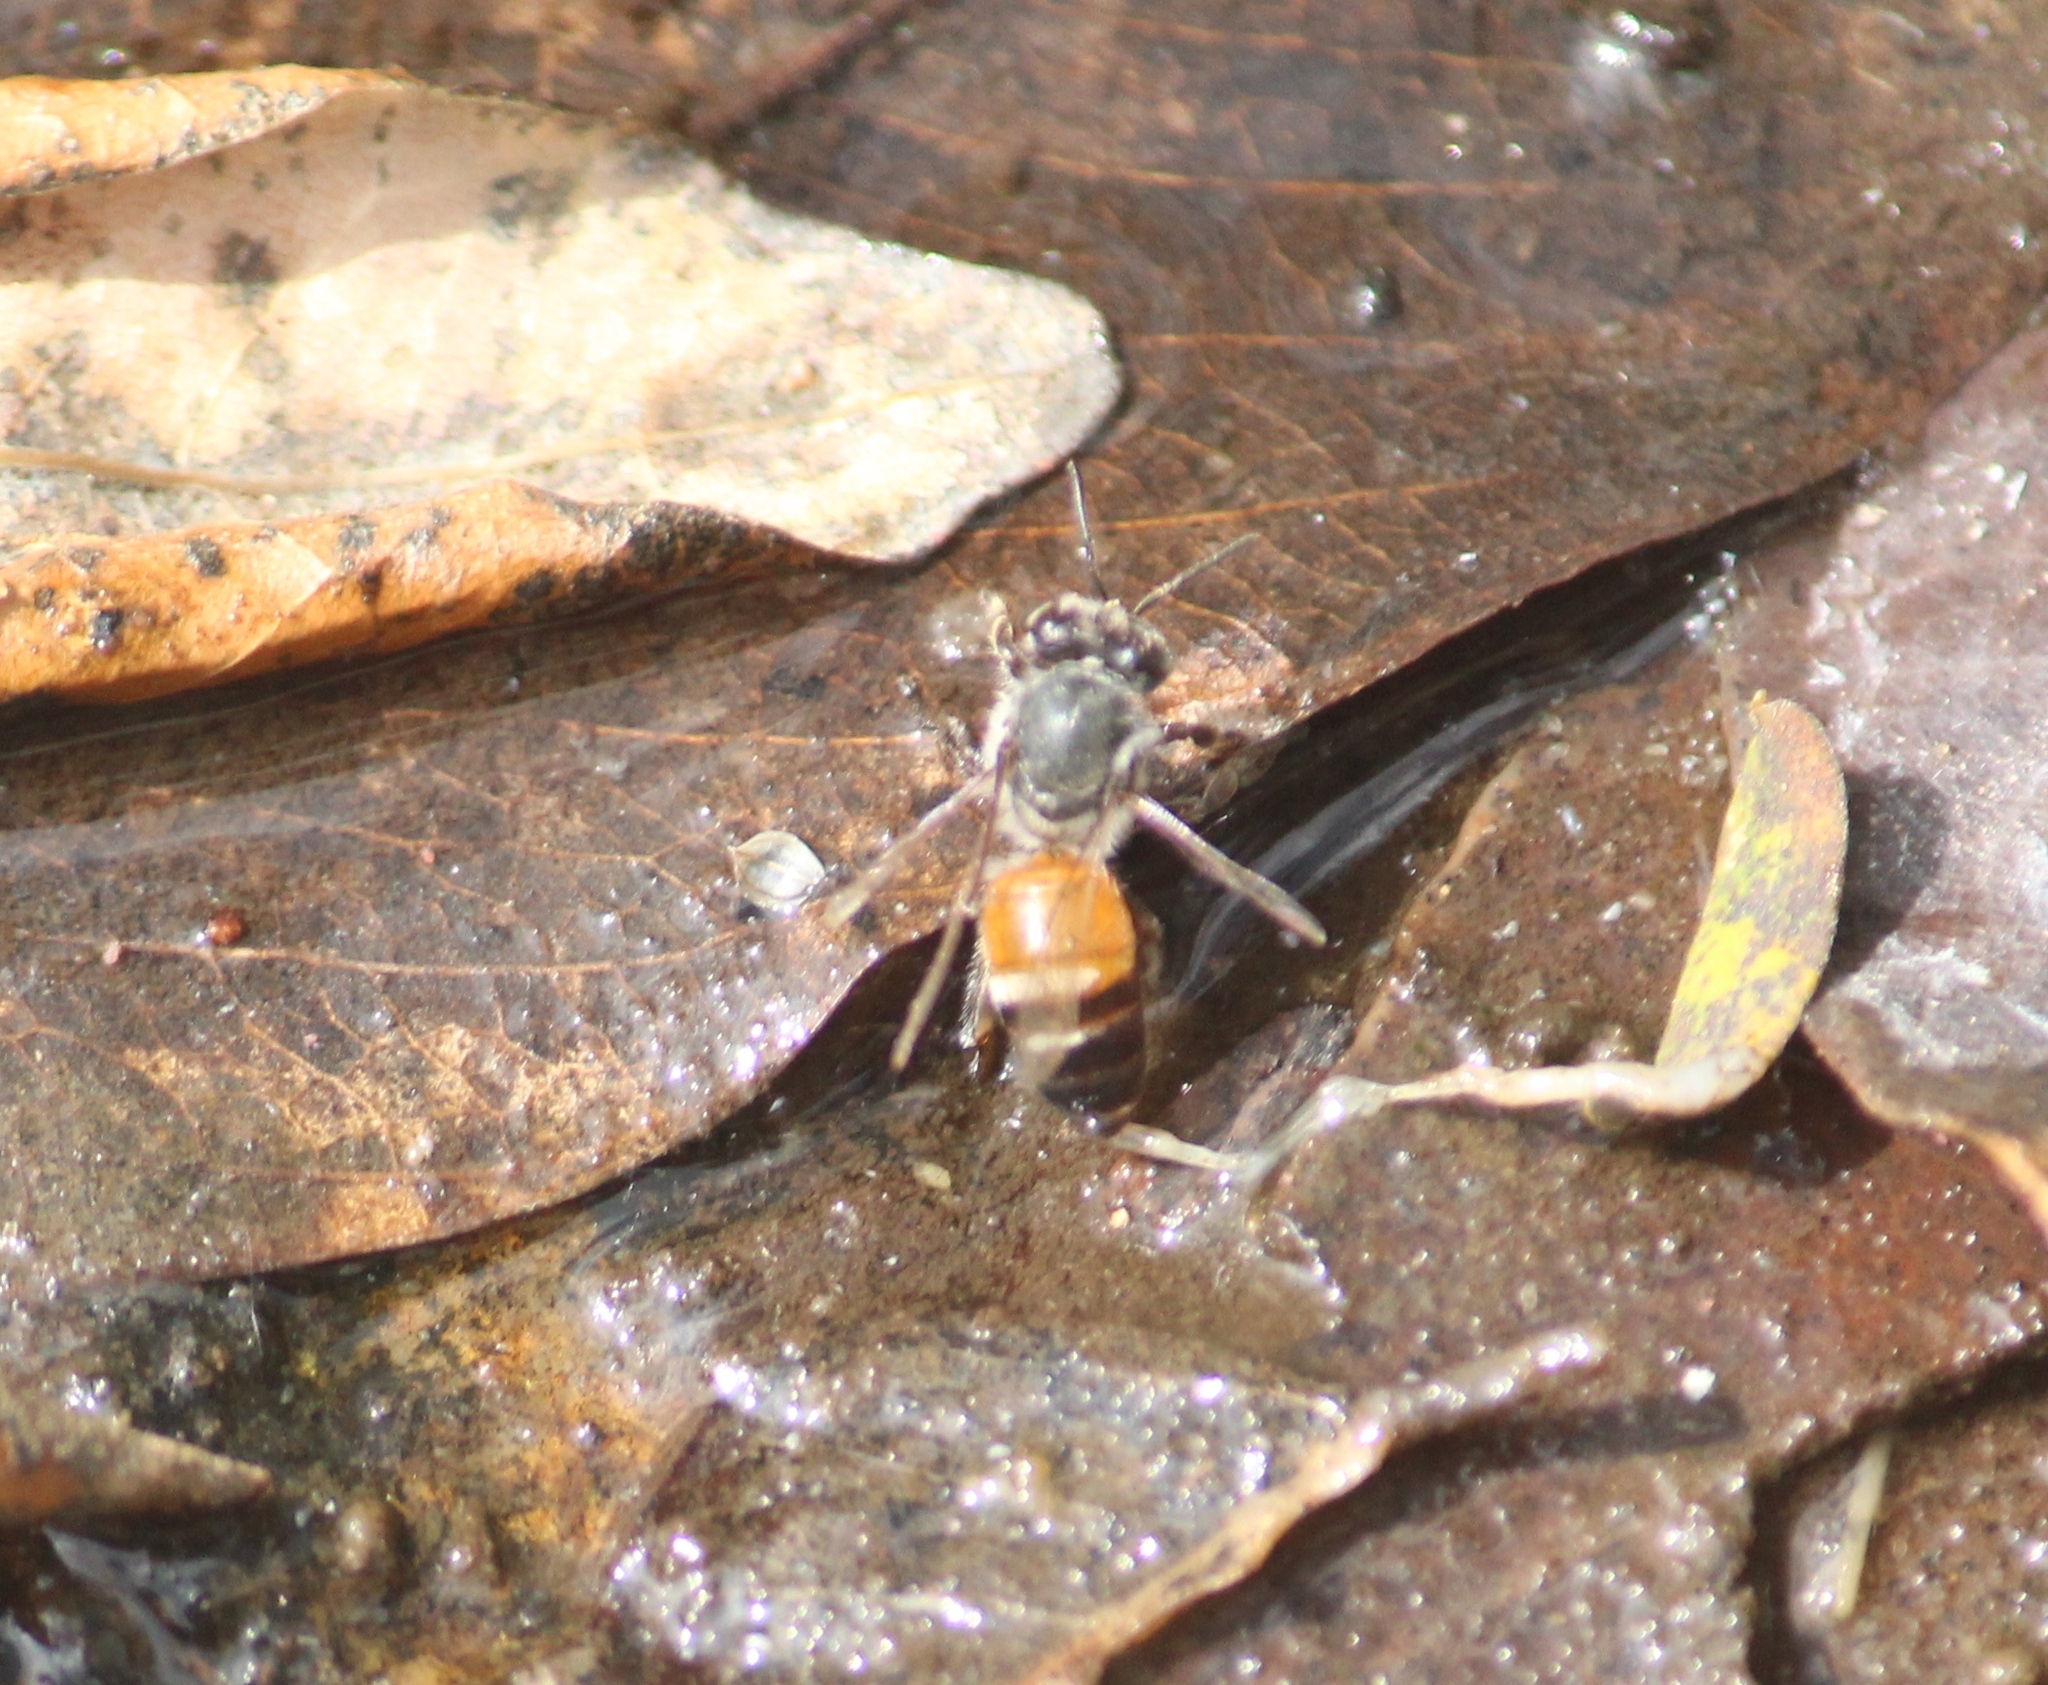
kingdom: Animalia
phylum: Arthropoda
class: Insecta
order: Hymenoptera
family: Apidae
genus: Apis
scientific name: Apis florea
